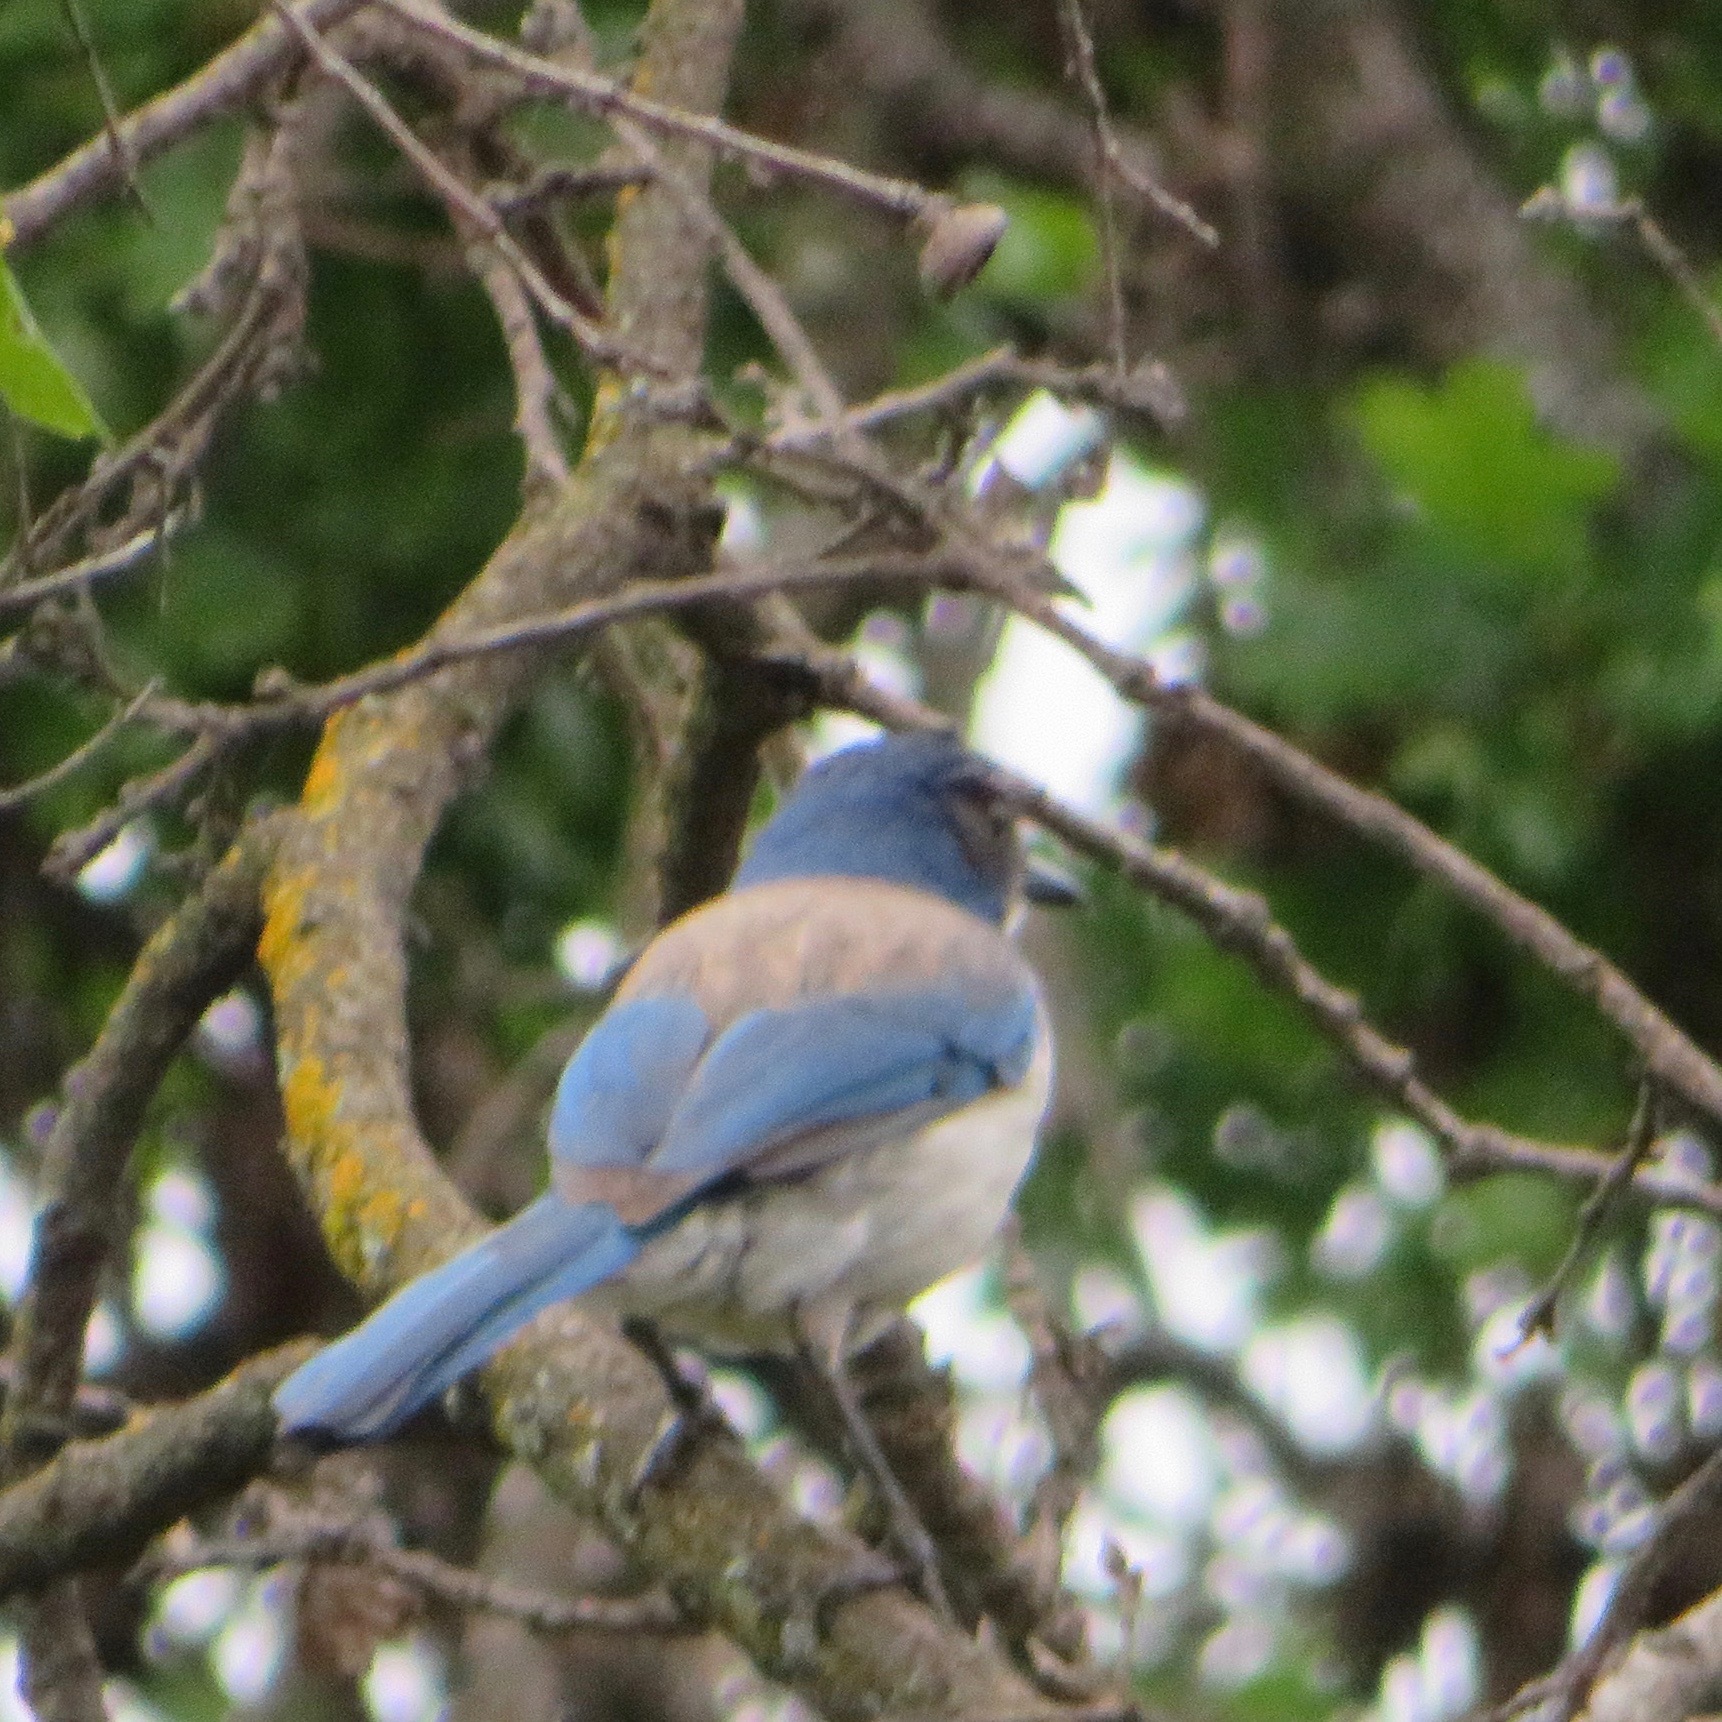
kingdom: Animalia
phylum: Chordata
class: Aves
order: Passeriformes
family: Corvidae
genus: Aphelocoma
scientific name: Aphelocoma californica
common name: California scrub-jay
